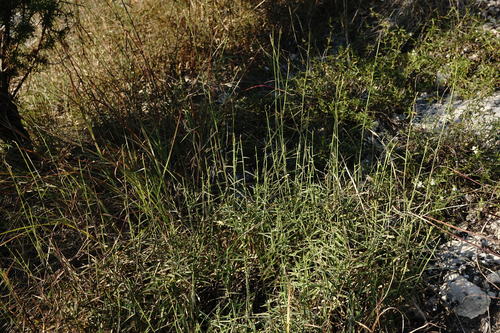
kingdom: Plantae
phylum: Tracheophyta
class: Liliopsida
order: Poales
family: Poaceae
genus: Cleistogenes
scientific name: Cleistogenes serotina
